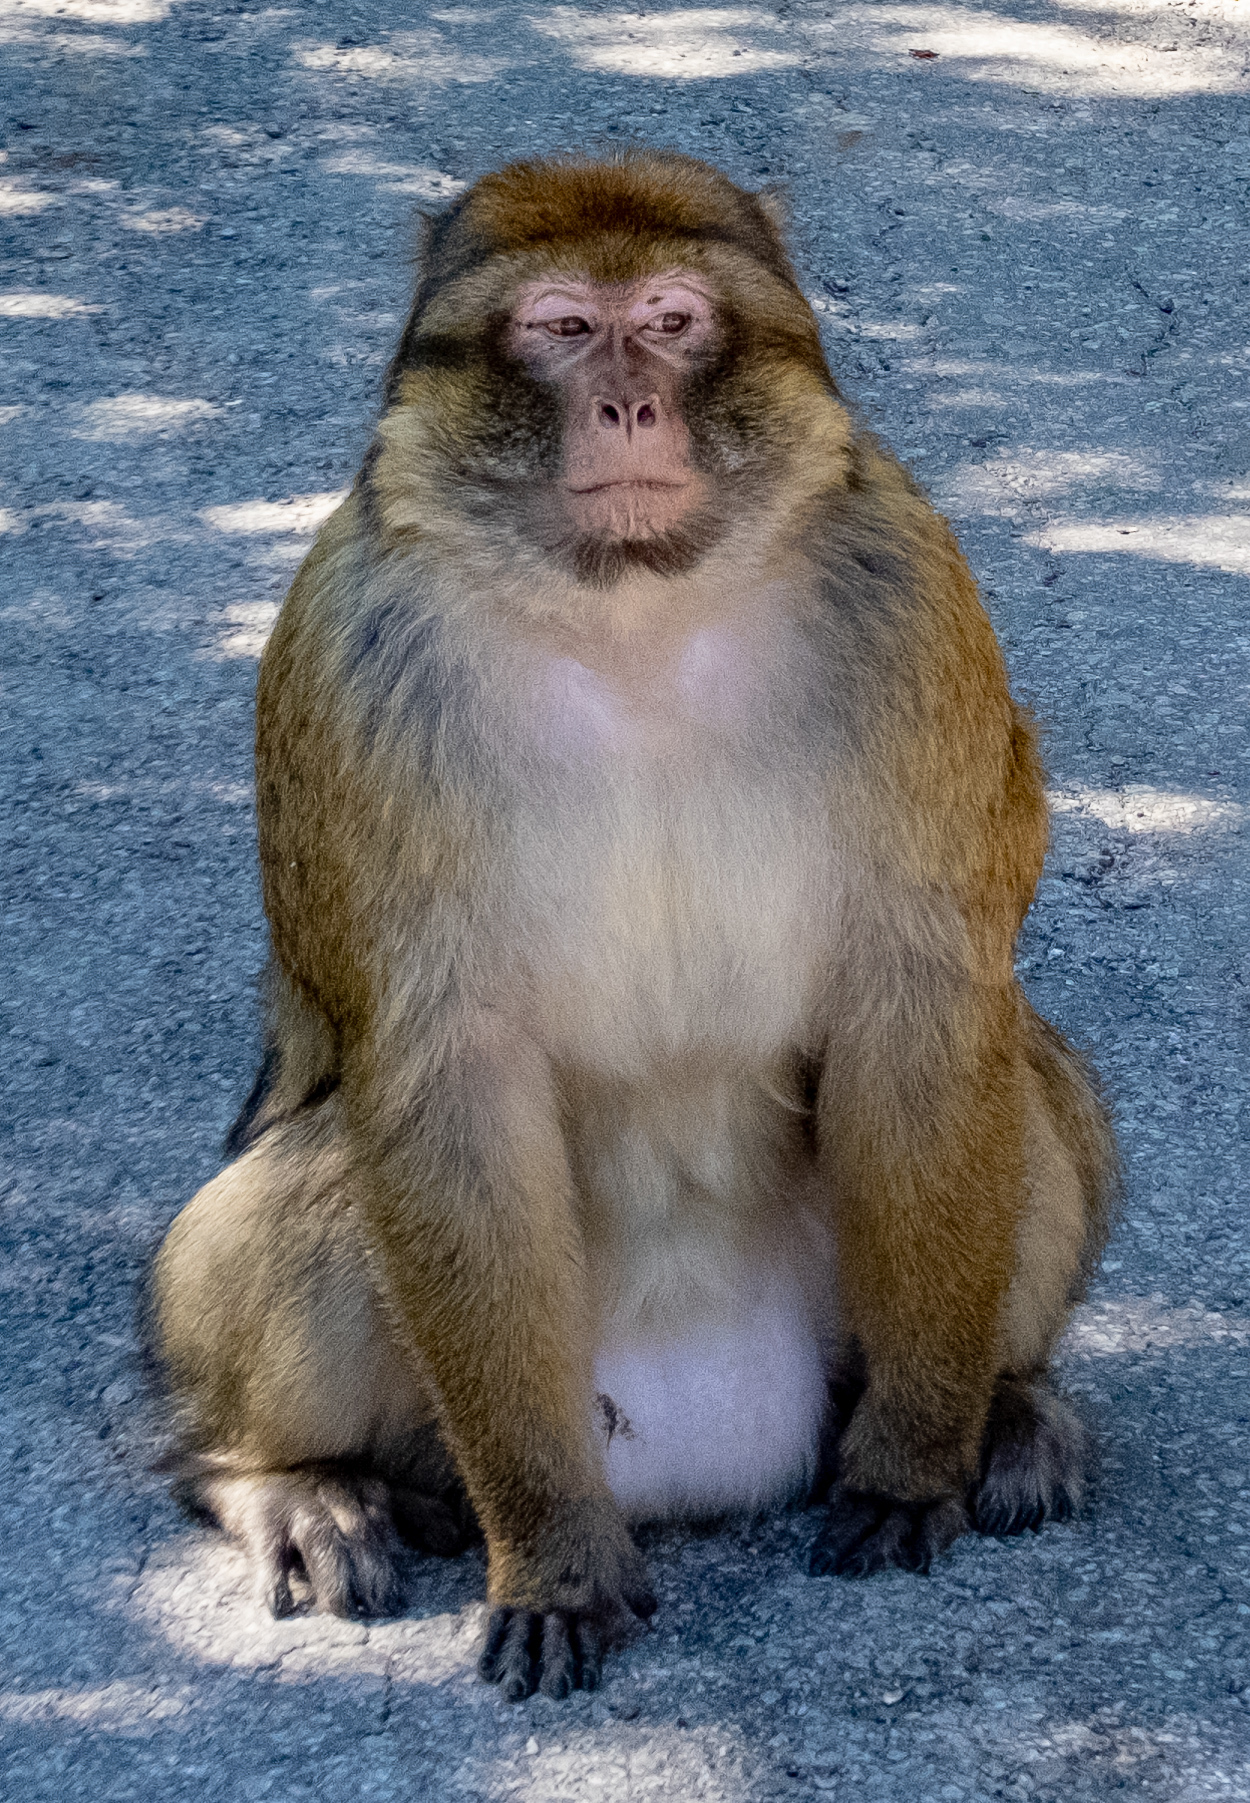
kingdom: Animalia
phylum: Chordata
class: Mammalia
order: Primates
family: Cercopithecidae
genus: Macaca
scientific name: Macaca sylvanus
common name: Barbary macaque
